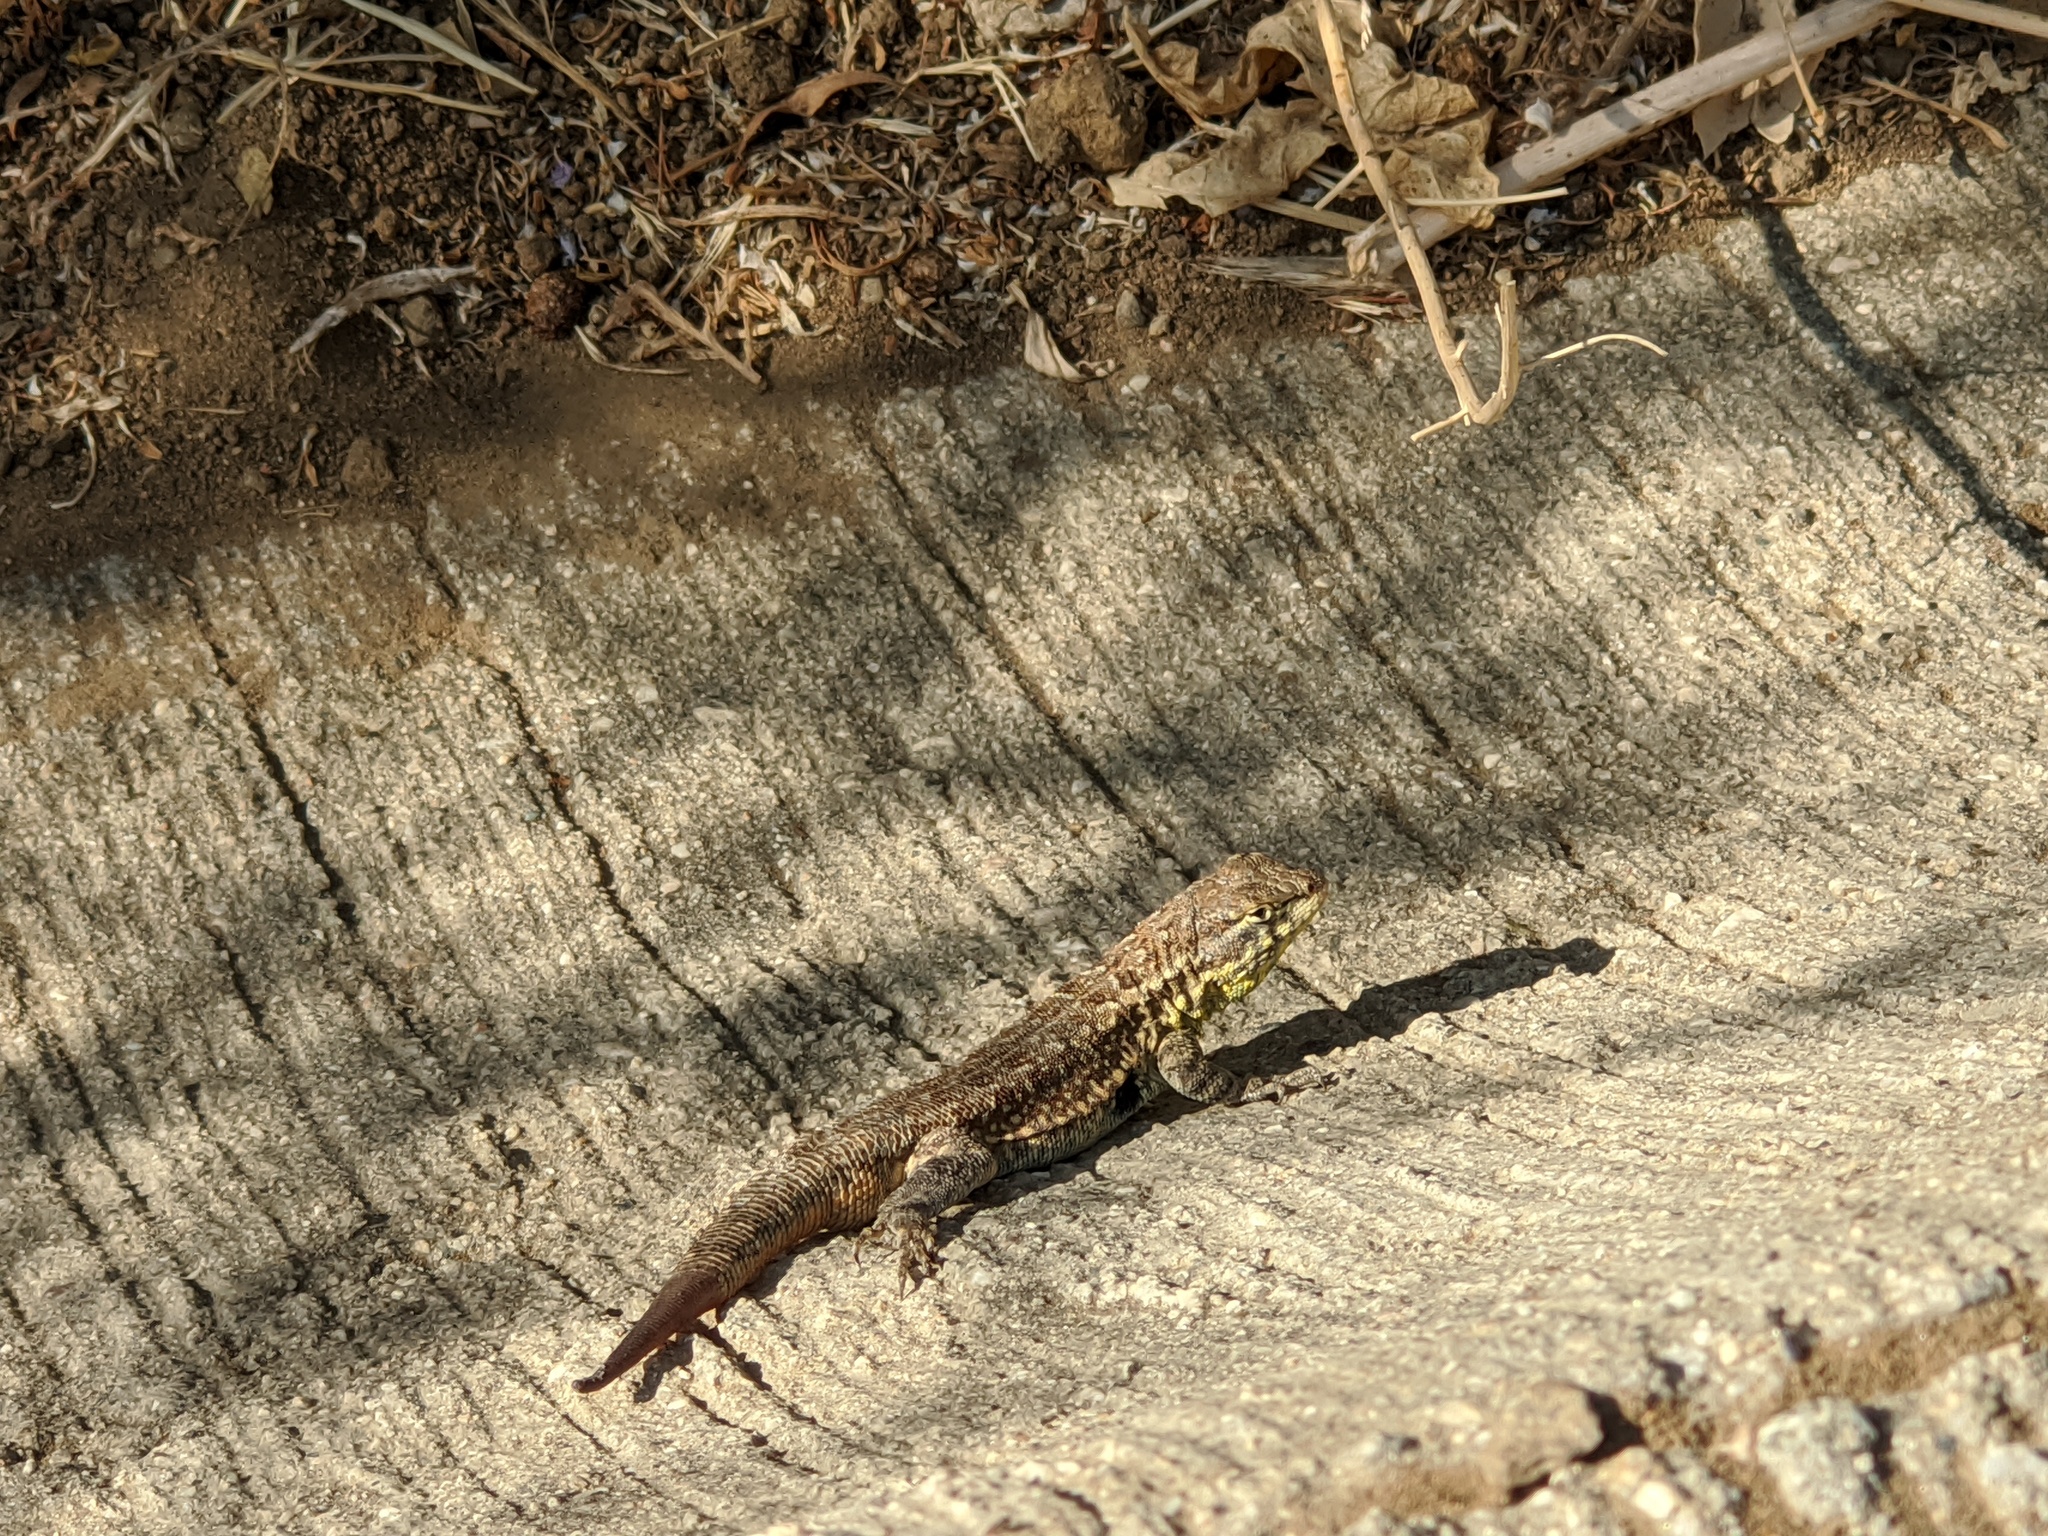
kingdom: Animalia
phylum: Chordata
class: Squamata
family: Phrynosomatidae
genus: Uta
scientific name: Uta stansburiana
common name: Side-blotched lizard
